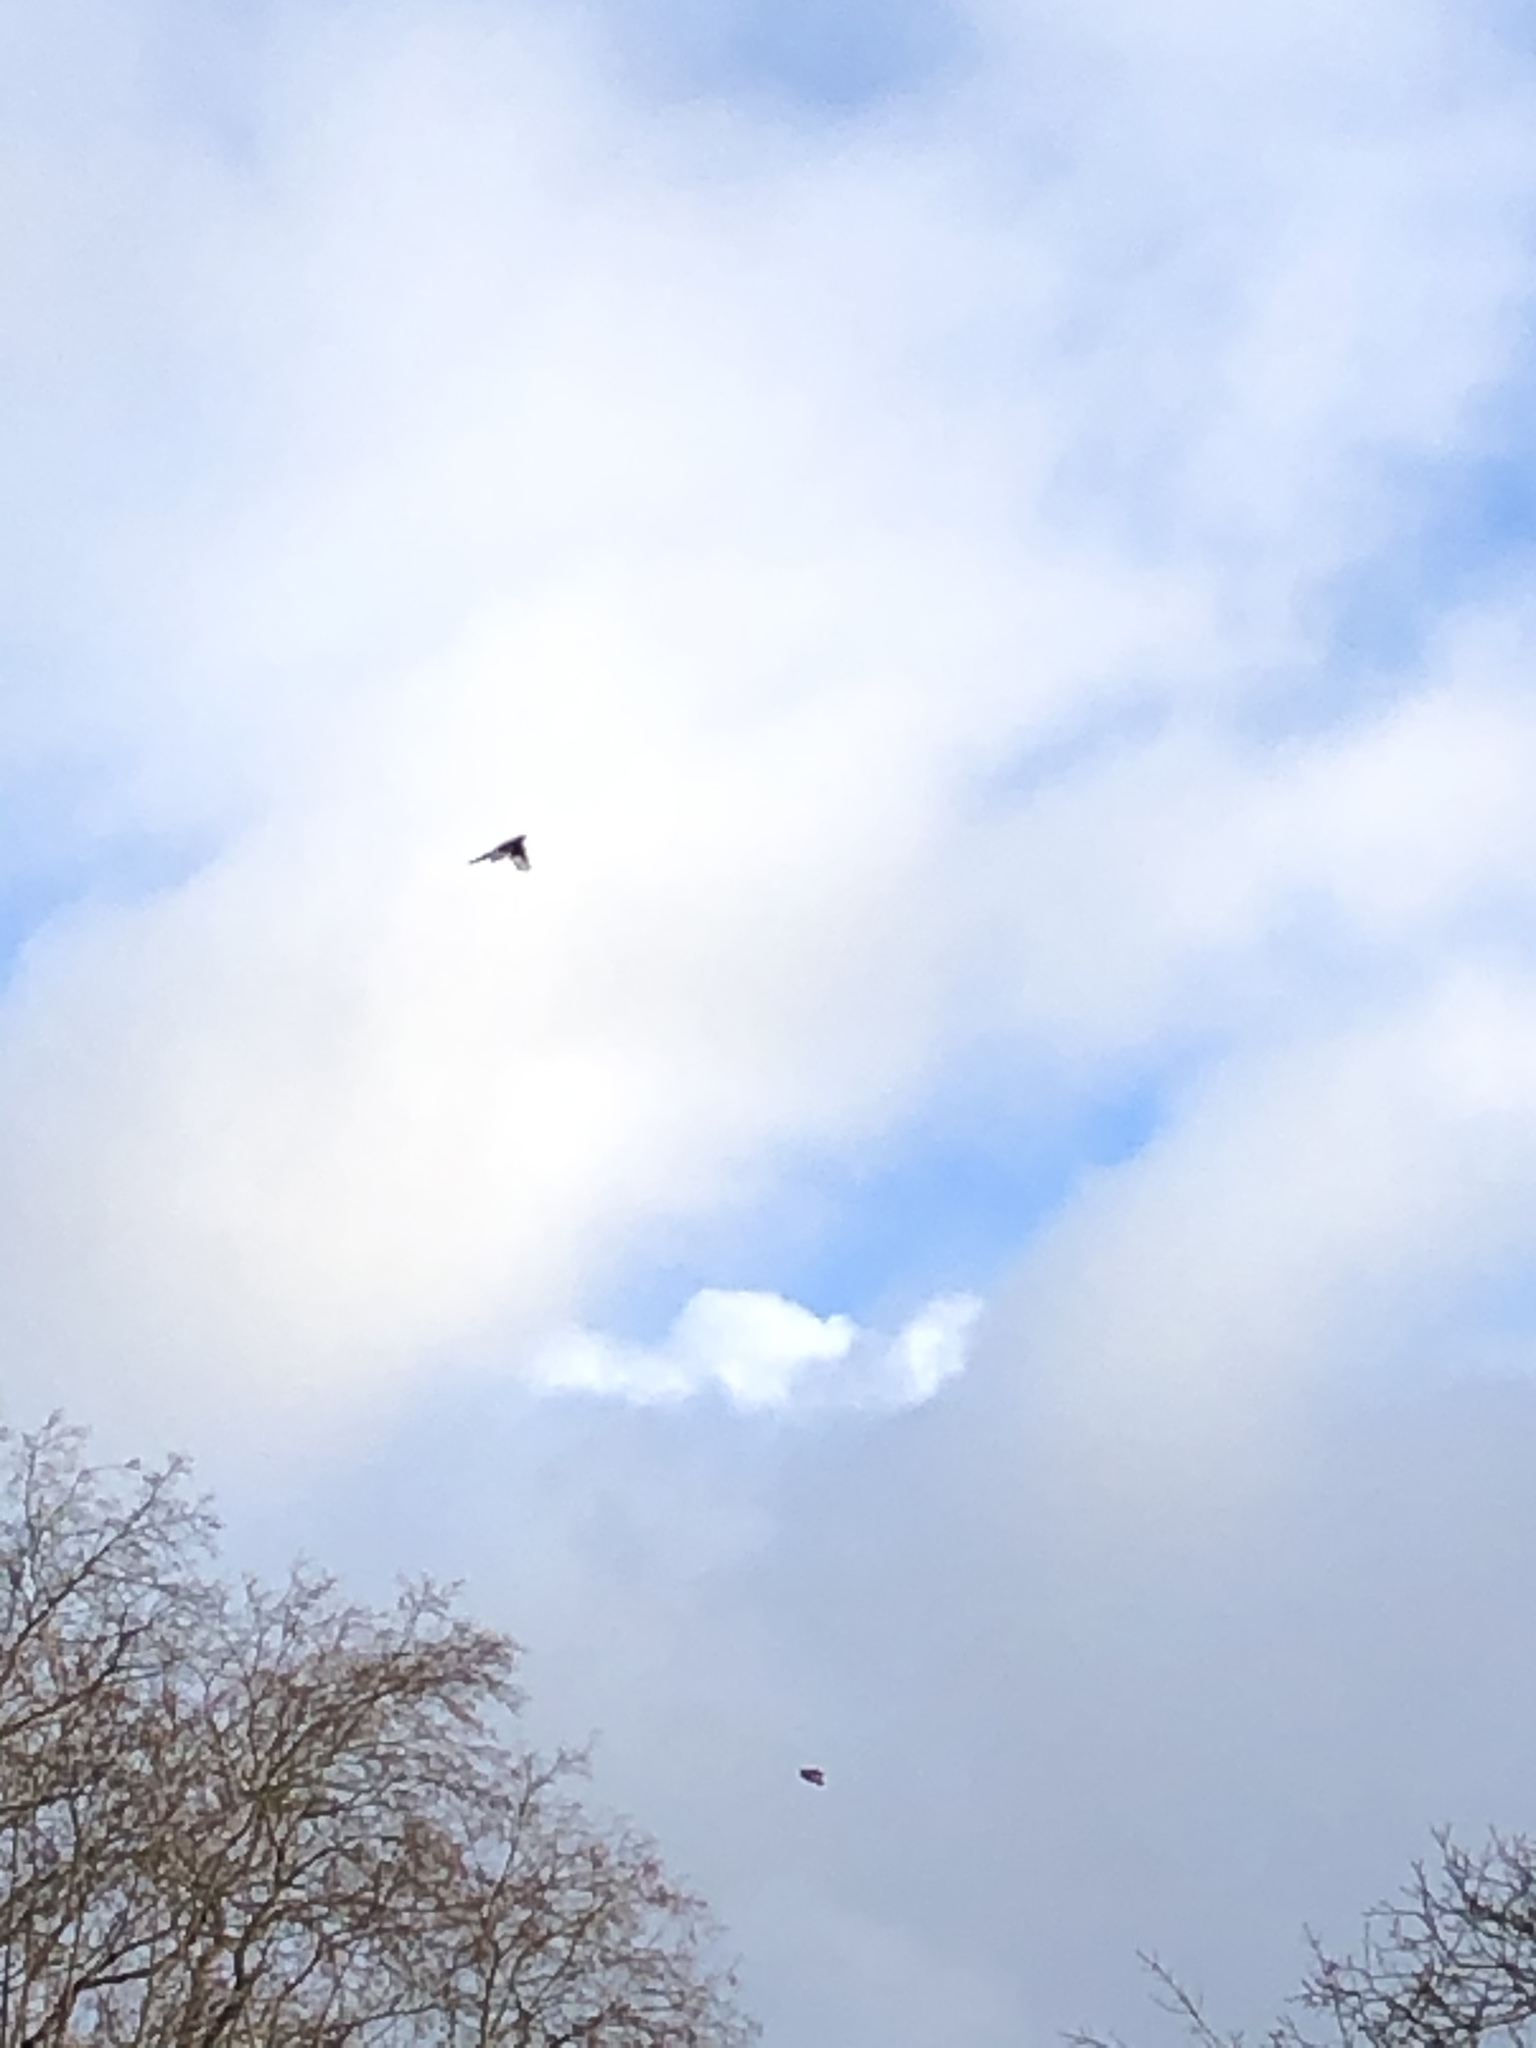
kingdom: Animalia
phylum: Chordata
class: Aves
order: Passeriformes
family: Corvidae
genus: Pica
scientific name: Pica pica
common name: Eurasian magpie
